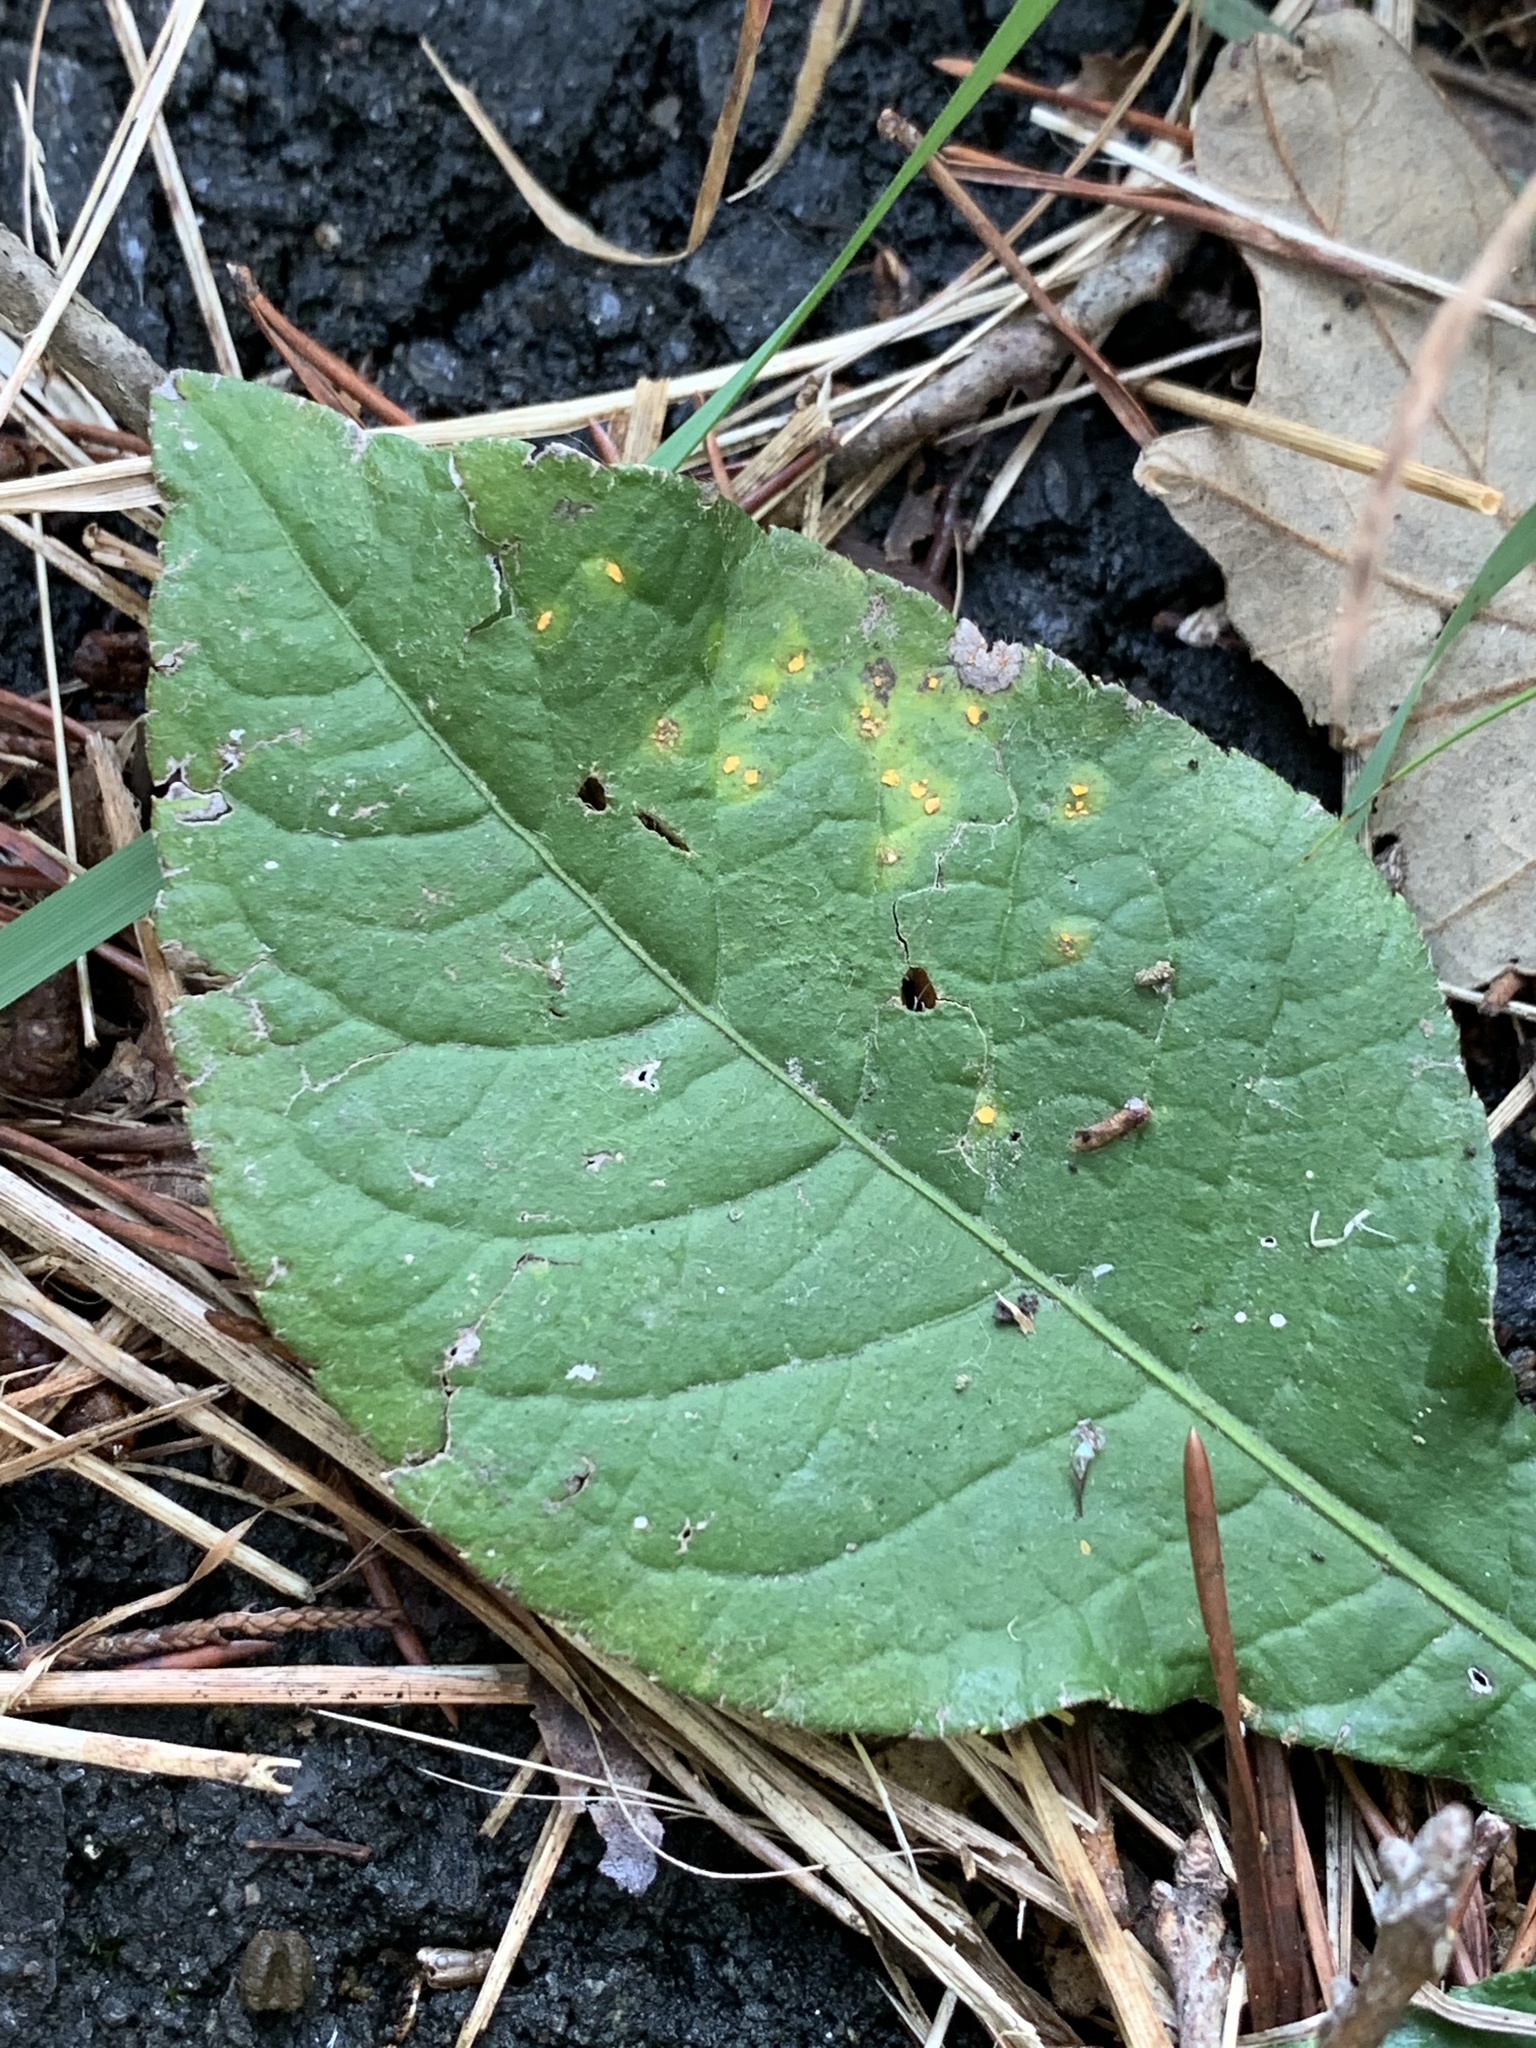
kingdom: Fungi
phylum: Basidiomycota
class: Pucciniomycetes
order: Pucciniales
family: Coleosporiaceae
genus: Coleosporium
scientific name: Coleosporium elephantopodis
